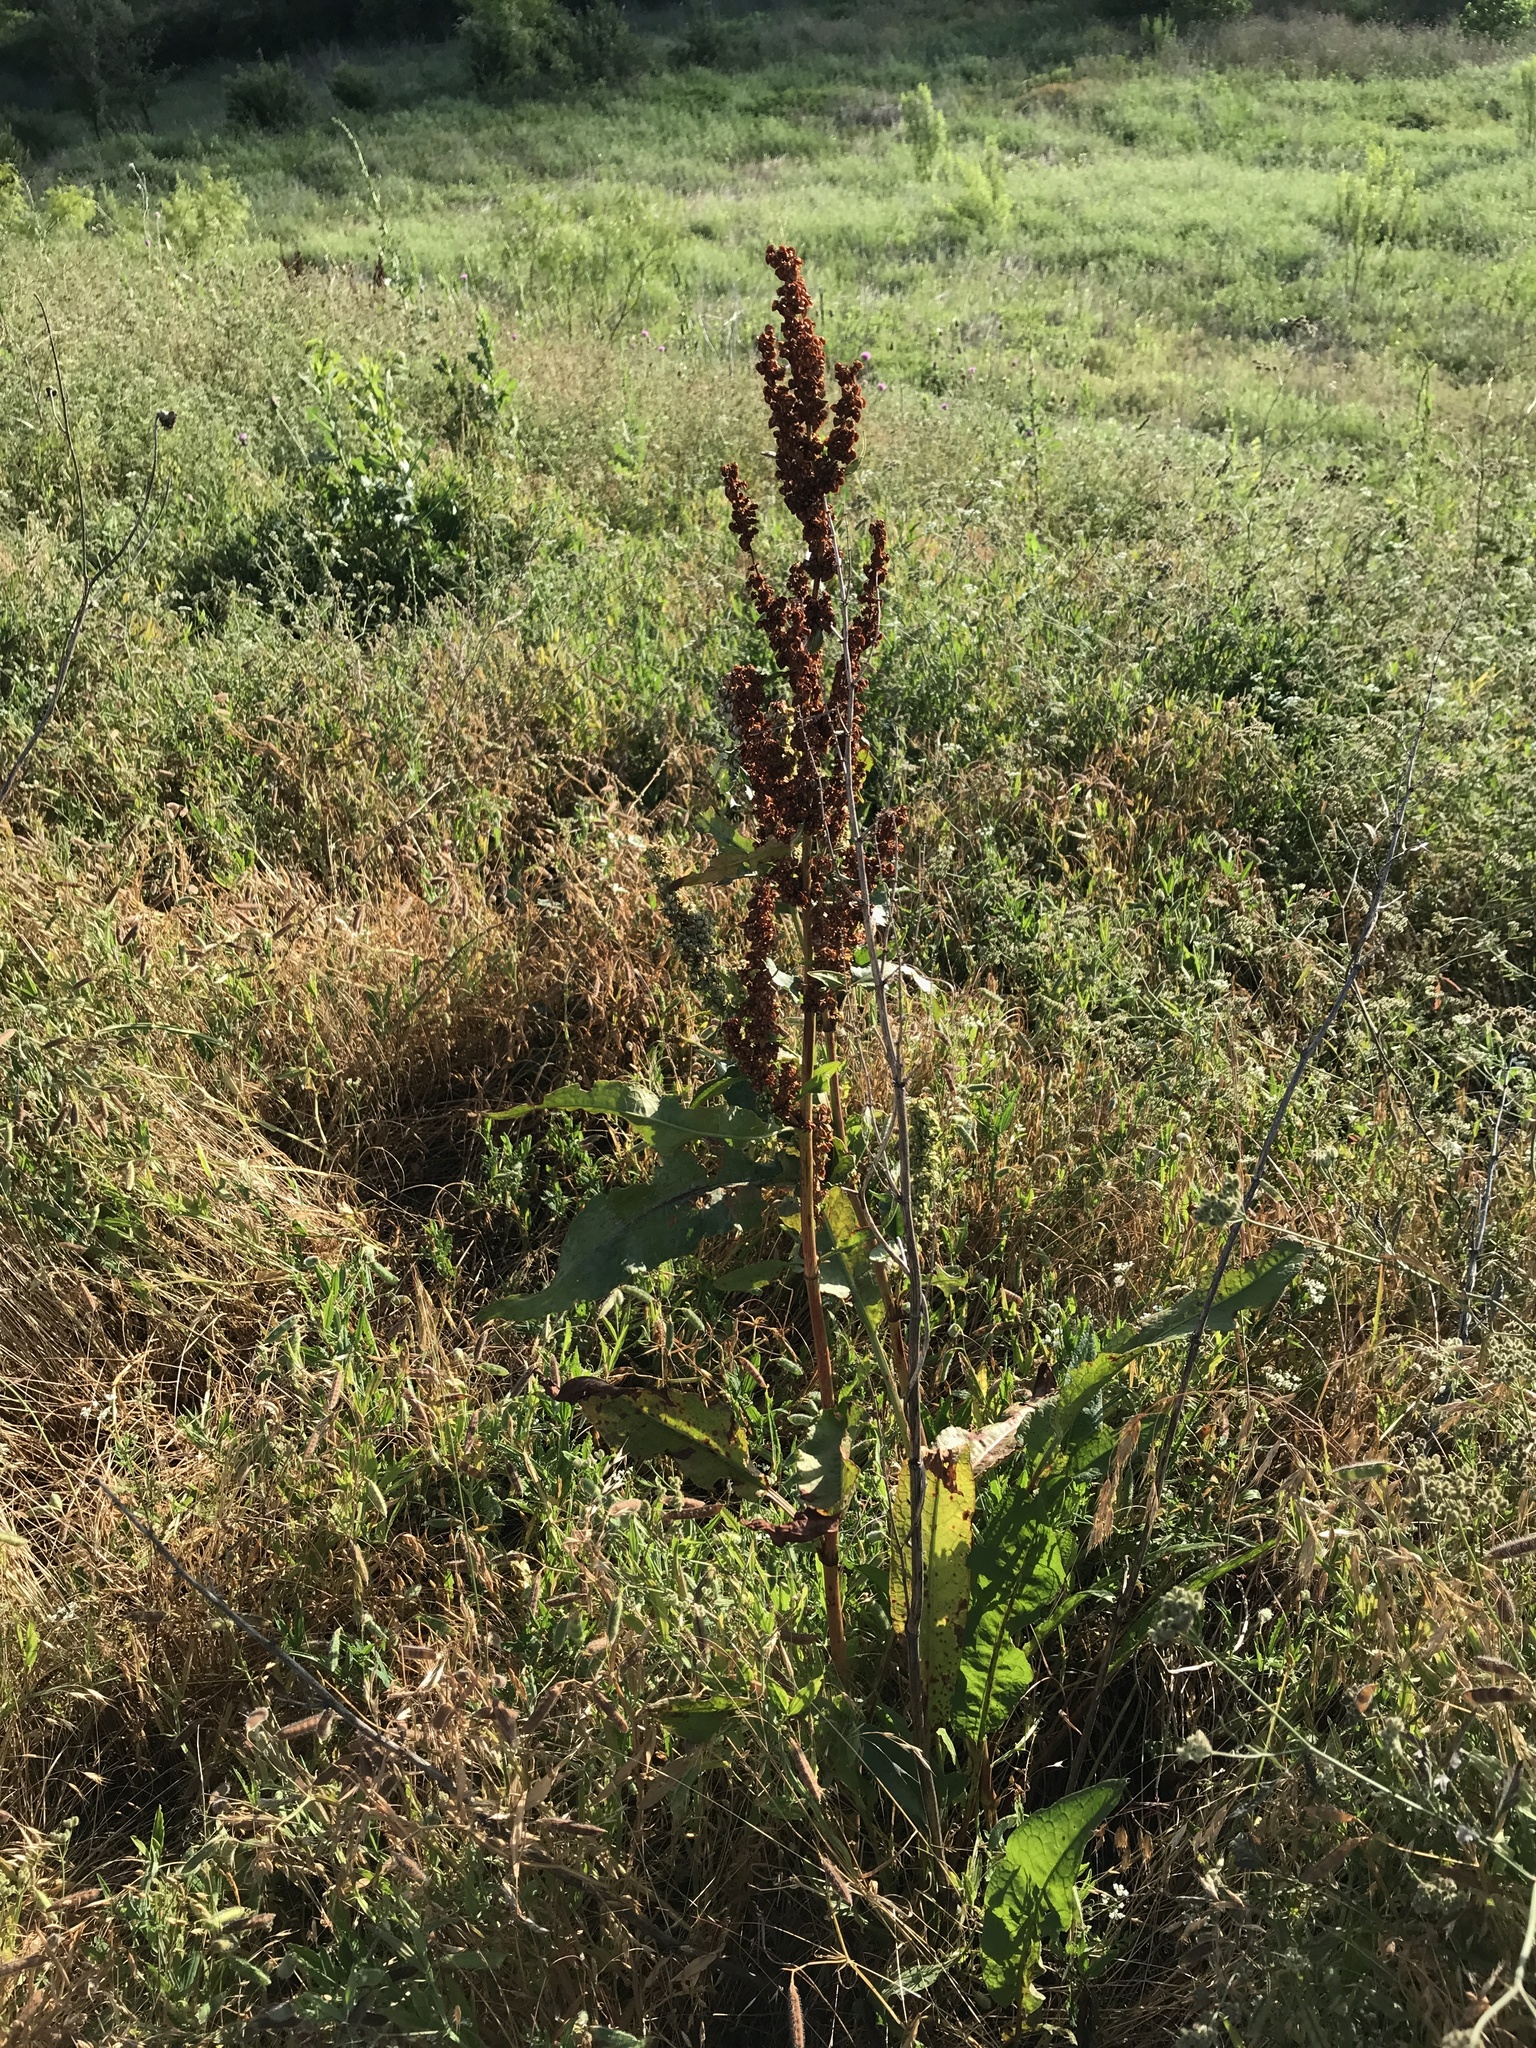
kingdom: Plantae
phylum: Tracheophyta
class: Magnoliopsida
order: Caryophyllales
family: Polygonaceae
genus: Rumex
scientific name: Rumex crispus
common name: Curled dock
